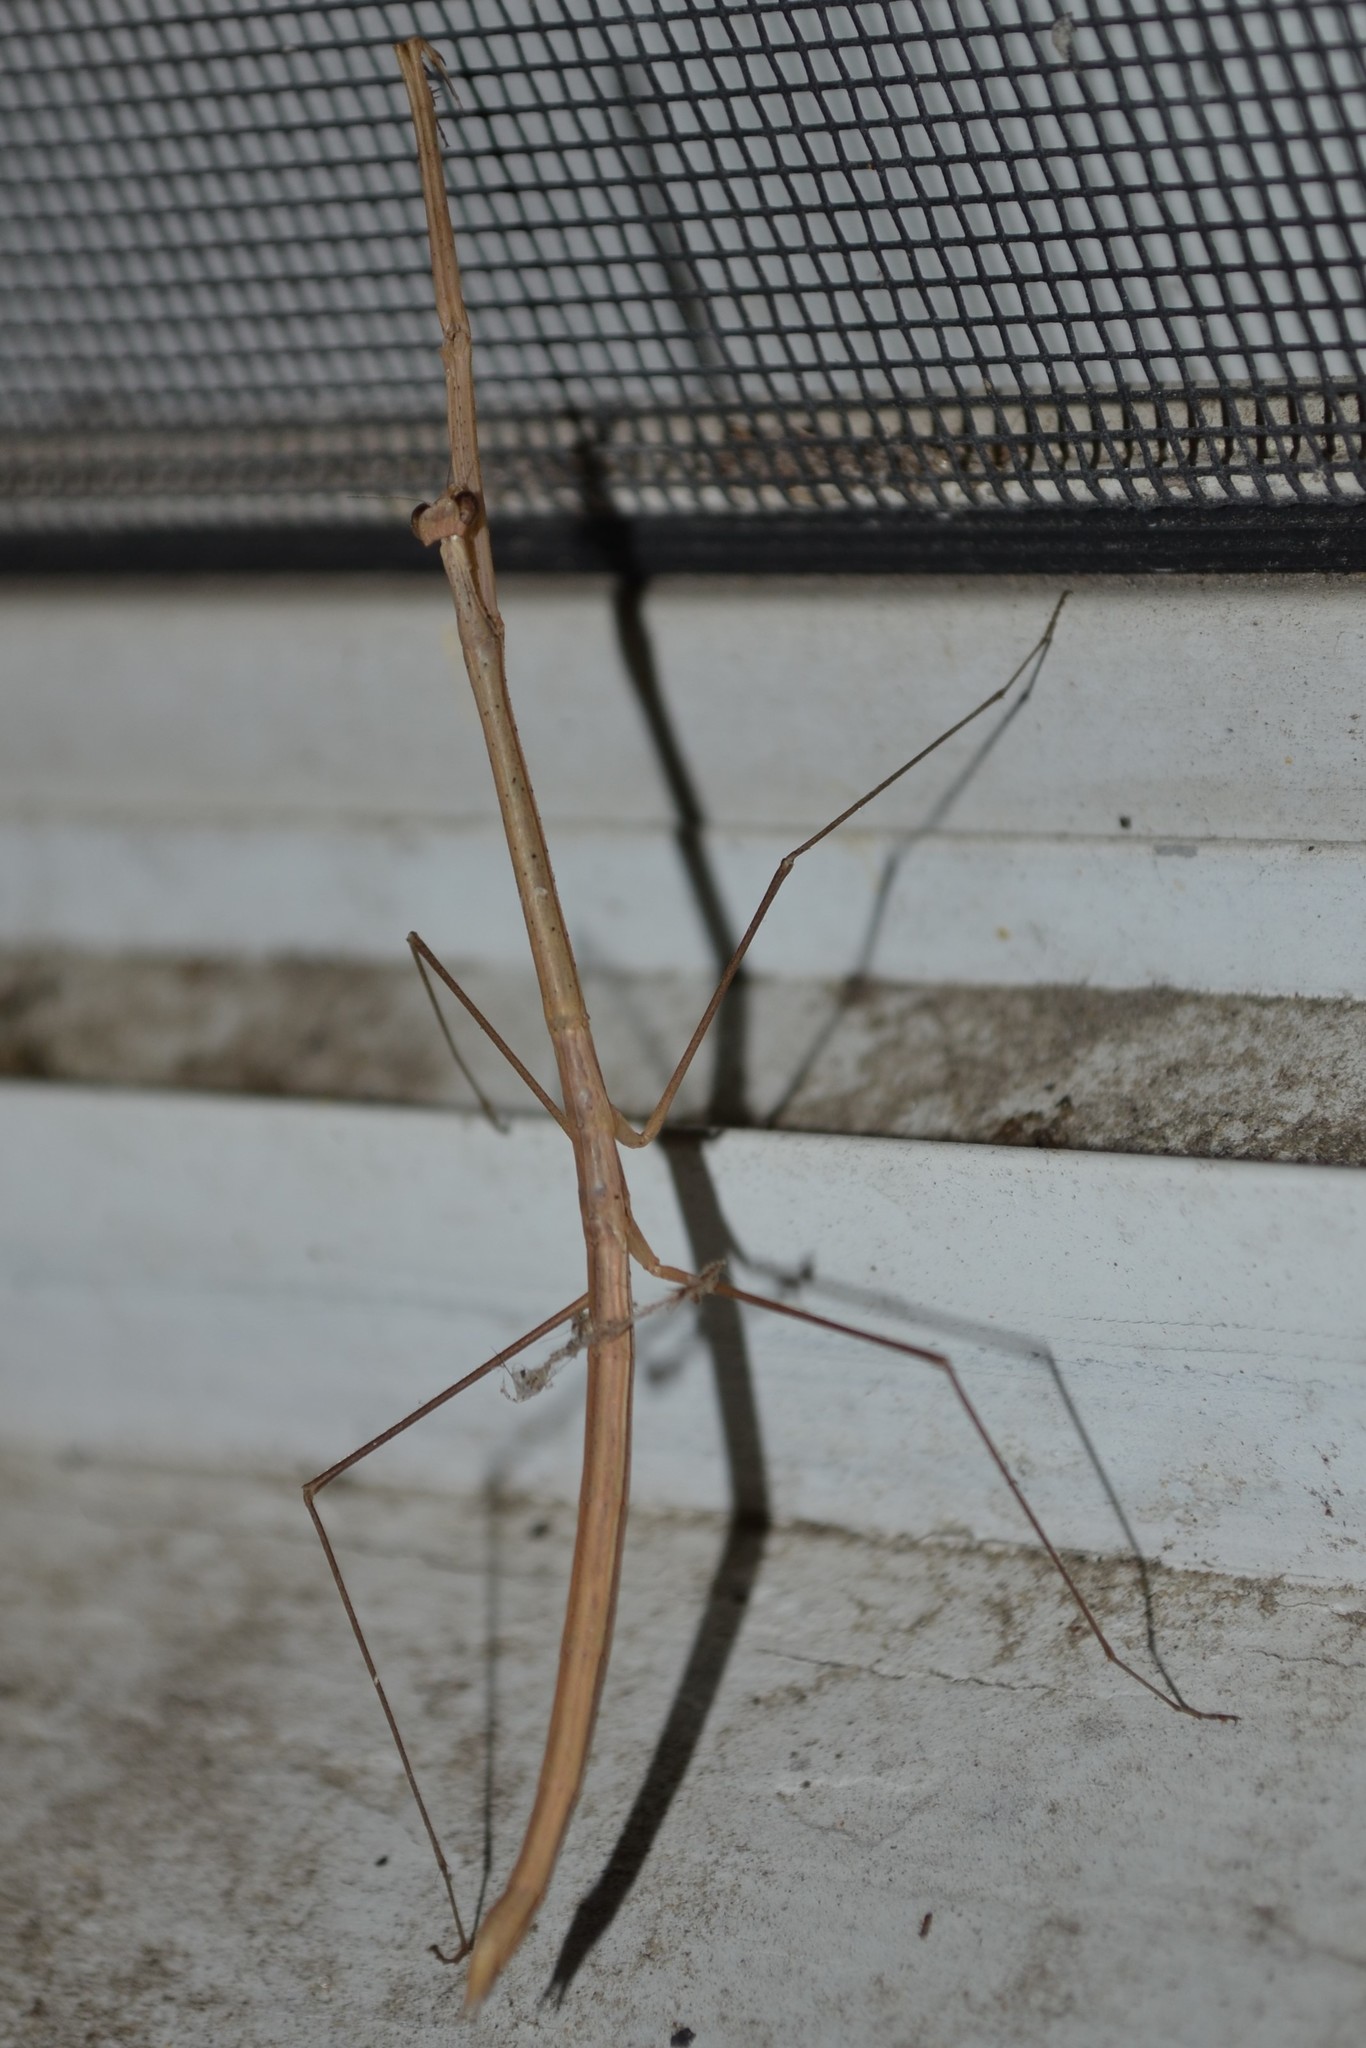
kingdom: Animalia
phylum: Arthropoda
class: Insecta
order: Mantodea
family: Thespidae
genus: Thesprotia
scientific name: Thesprotia graminis
